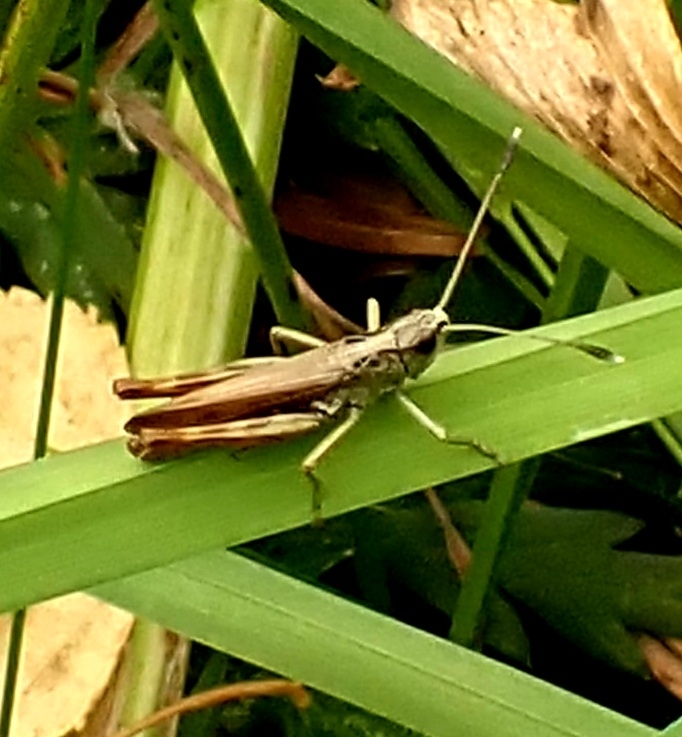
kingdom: Animalia
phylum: Arthropoda
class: Insecta
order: Orthoptera
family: Acrididae
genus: Gomphocerippus
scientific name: Gomphocerippus rufus
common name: Rufous grasshopper
